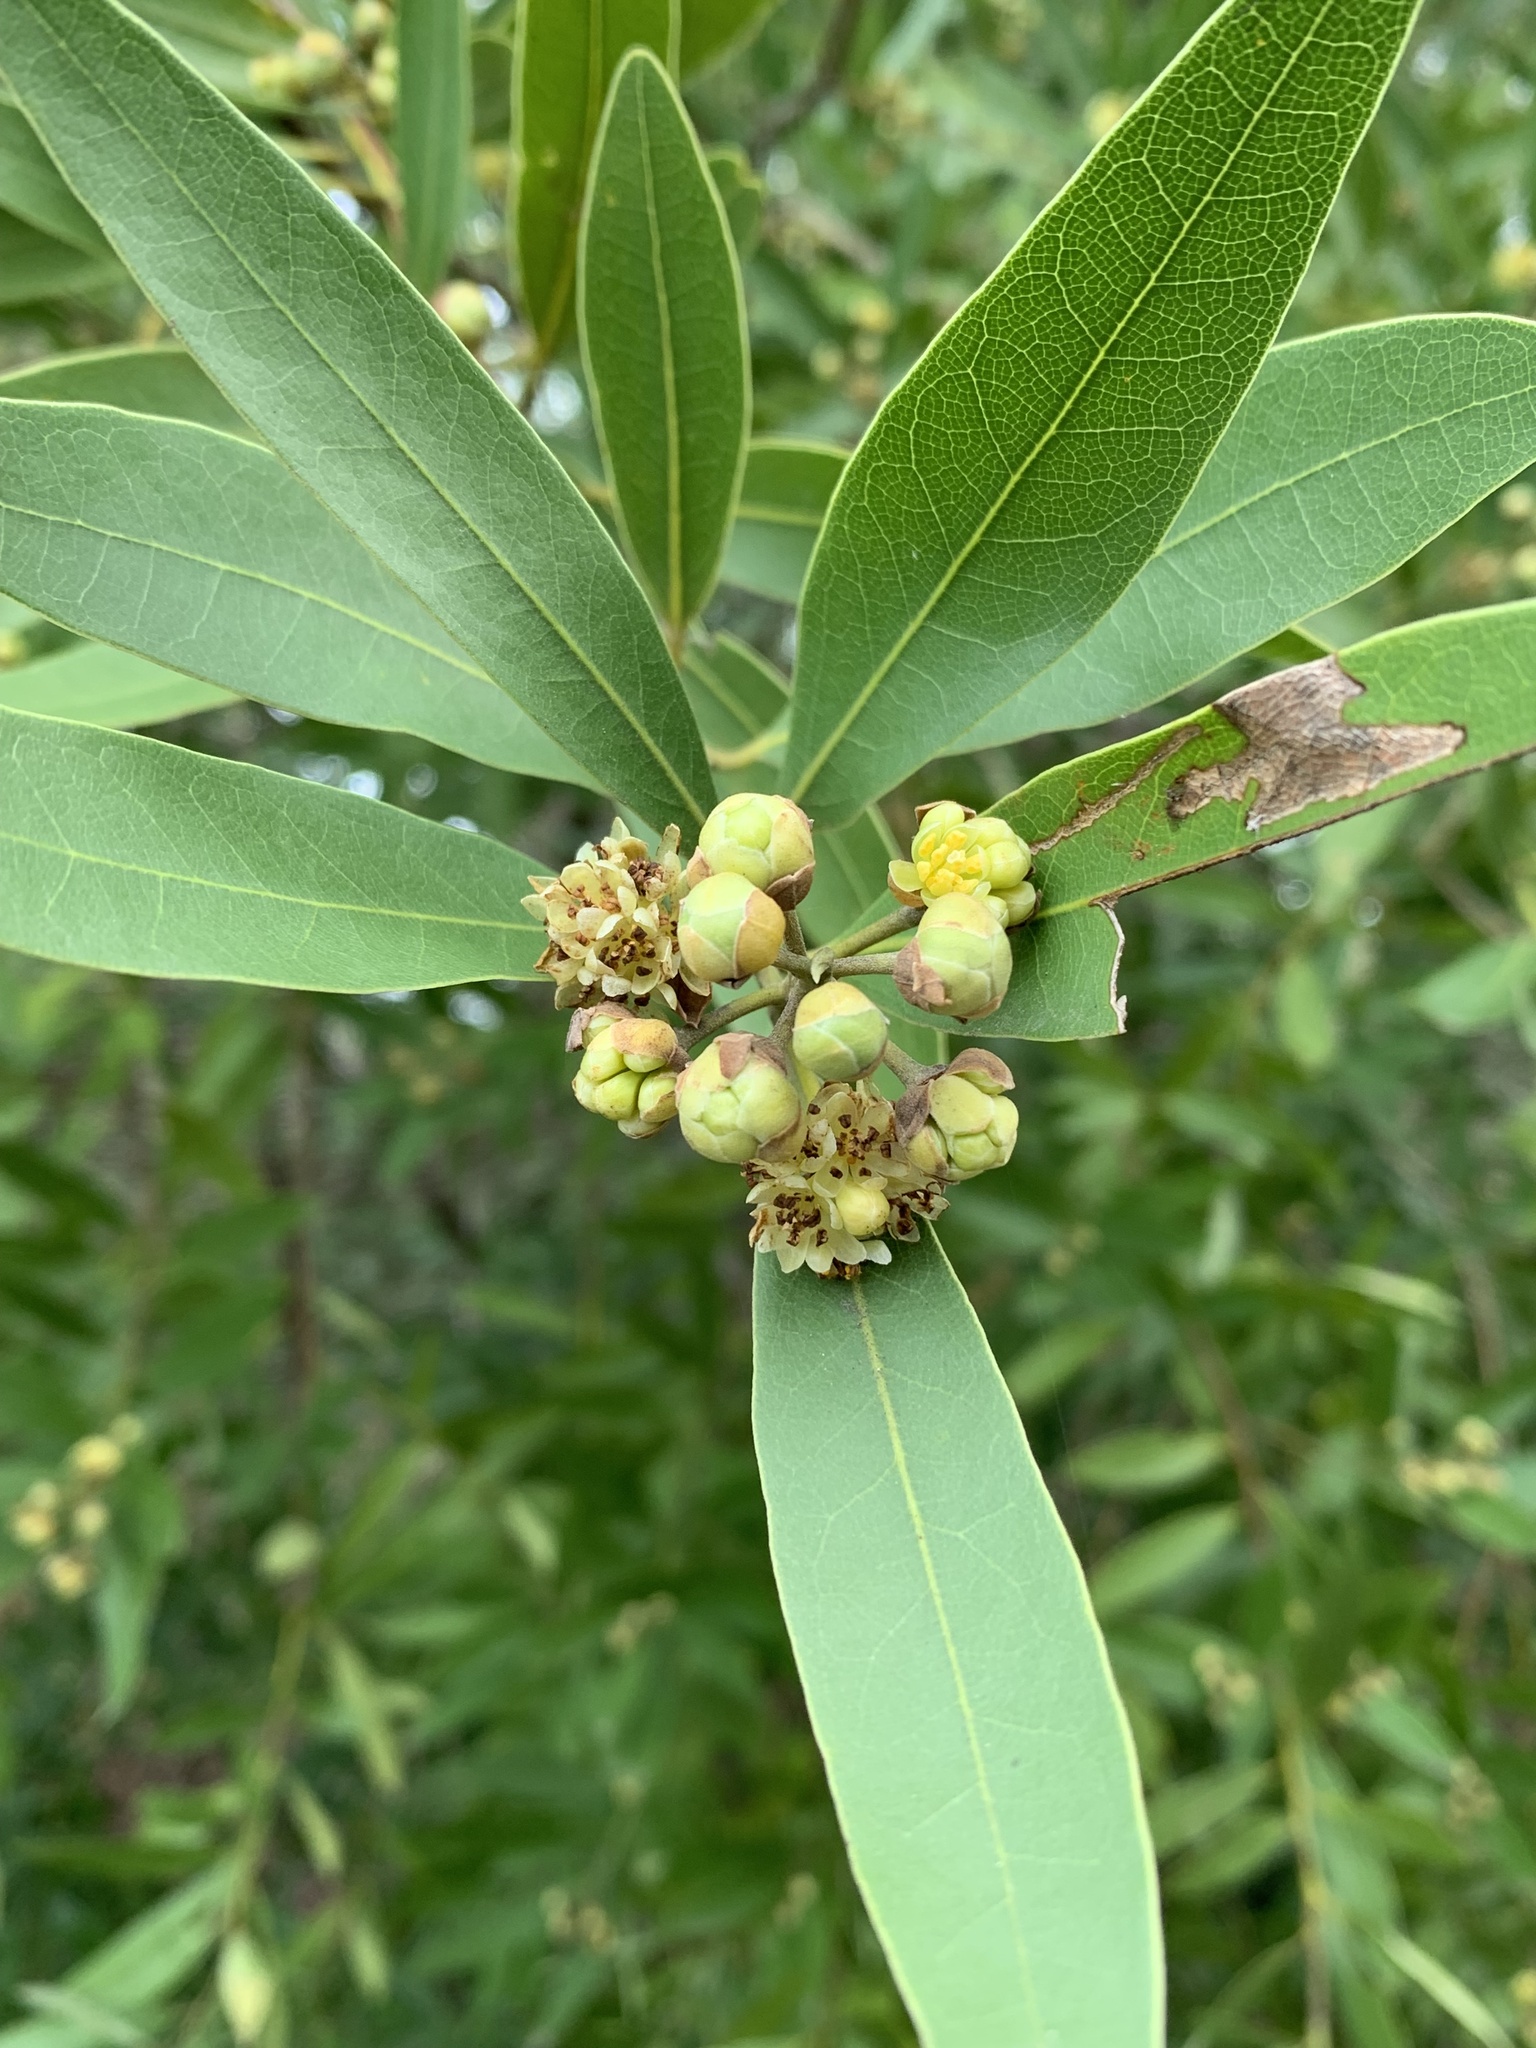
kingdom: Plantae
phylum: Tracheophyta
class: Magnoliopsida
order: Laurales
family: Lauraceae
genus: Umbellularia
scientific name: Umbellularia californica
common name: California bay
